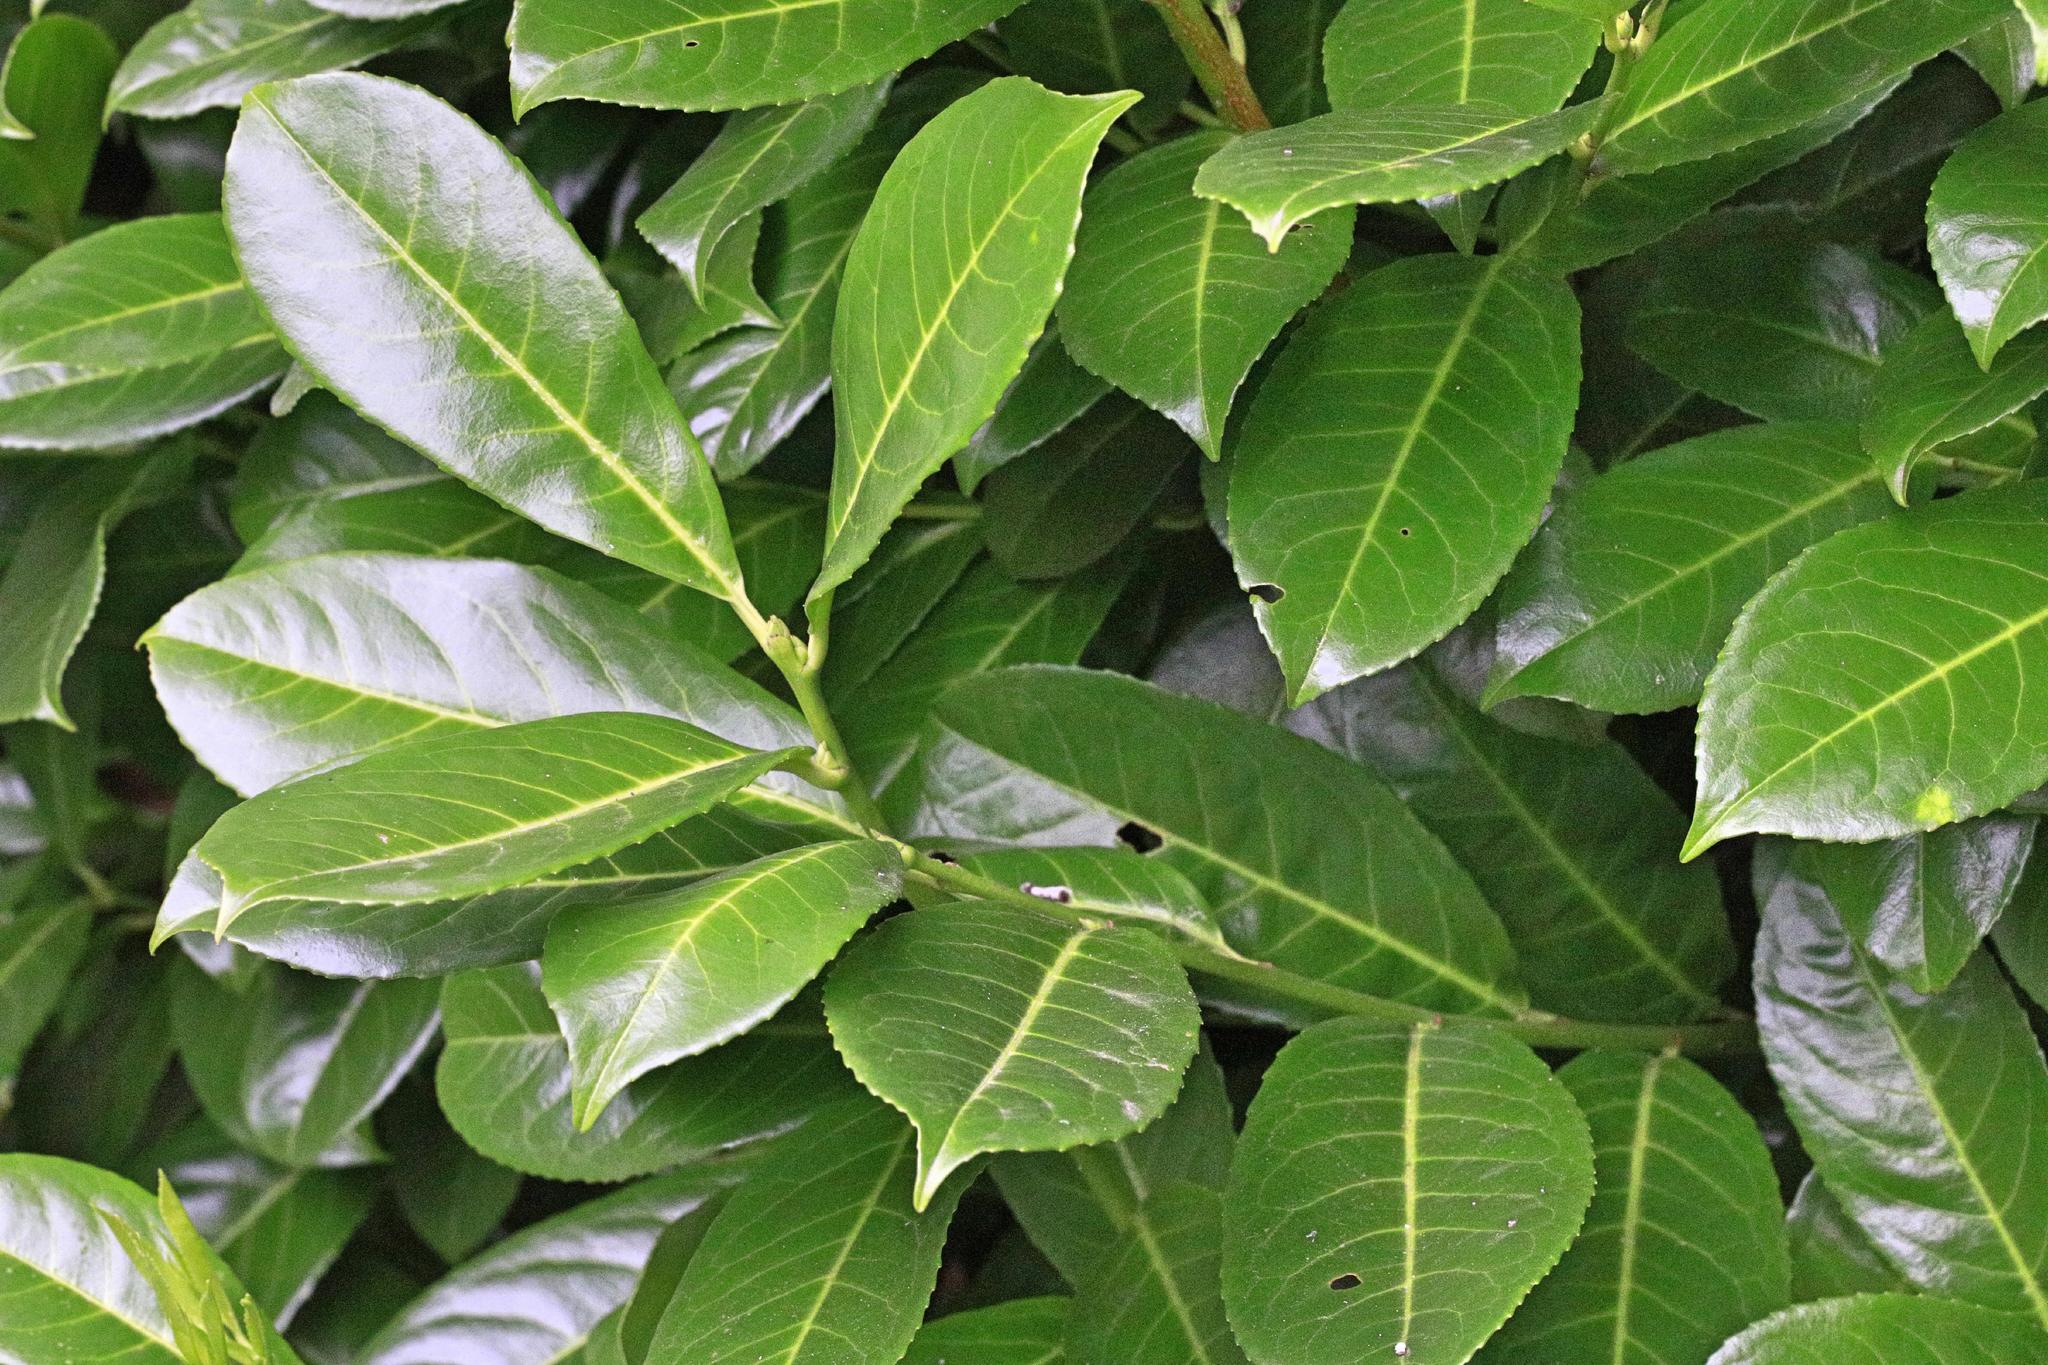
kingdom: Plantae
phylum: Tracheophyta
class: Magnoliopsida
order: Rosales
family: Rosaceae
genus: Prunus
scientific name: Prunus laurocerasus
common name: Cherry laurel
